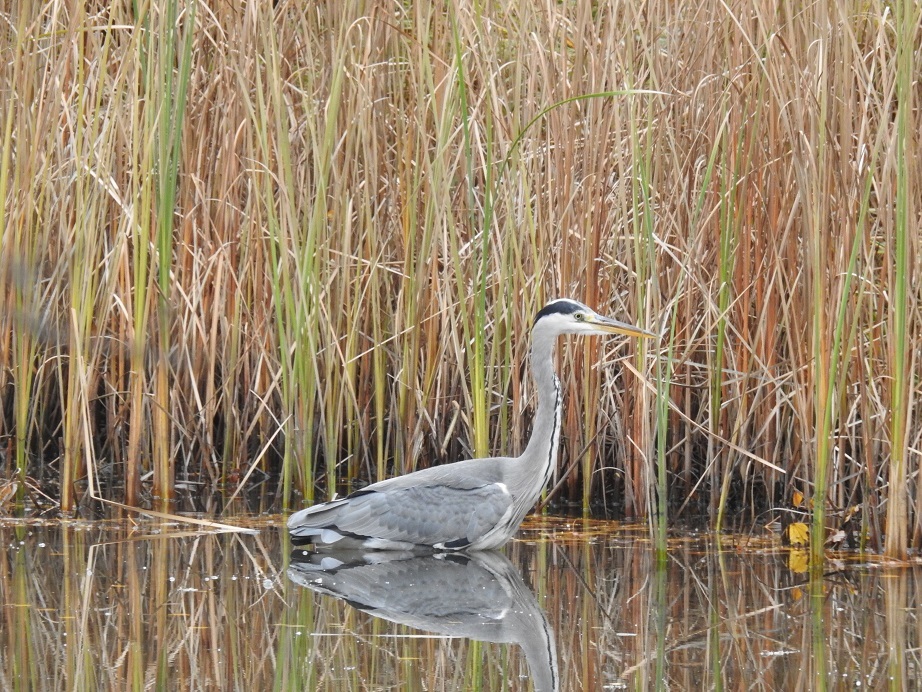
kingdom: Animalia
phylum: Chordata
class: Aves
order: Pelecaniformes
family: Ardeidae
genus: Ardea
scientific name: Ardea cinerea
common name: Grey heron
